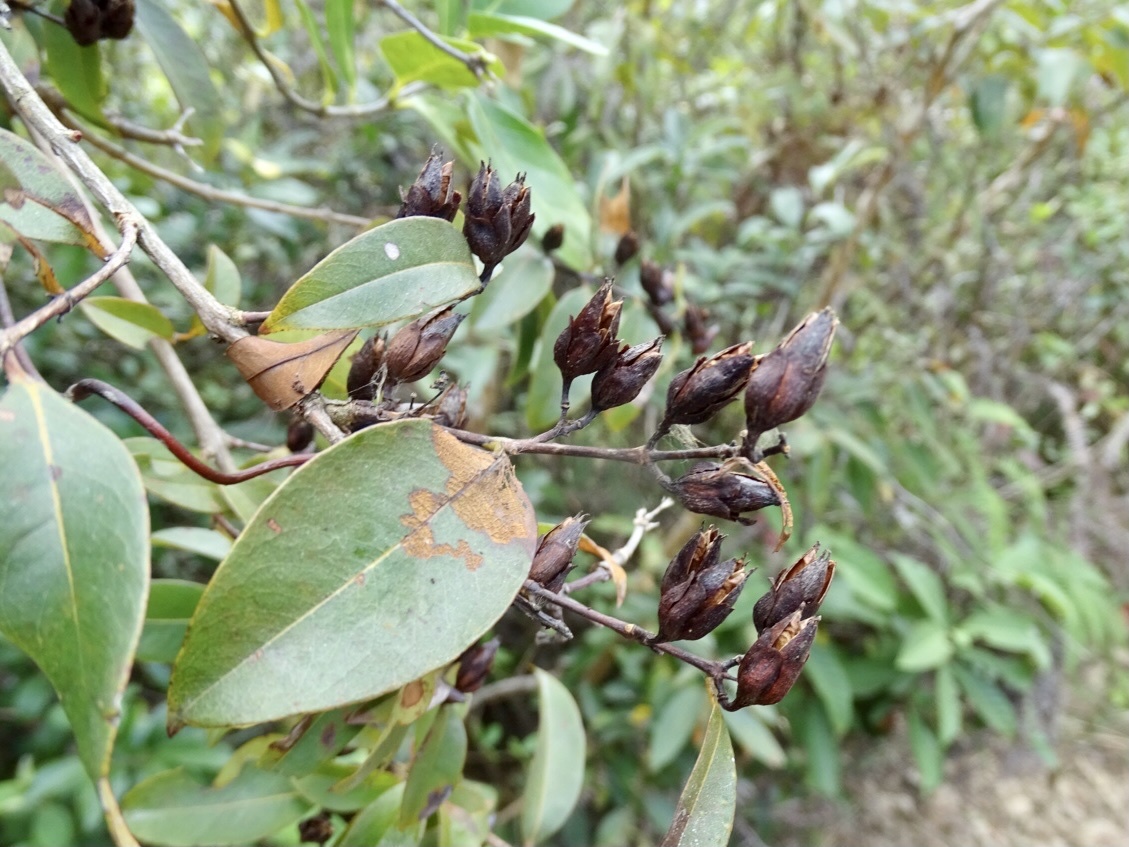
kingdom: Plantae
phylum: Tracheophyta
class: Magnoliopsida
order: Malpighiales
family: Hypericaceae
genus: Cratoxylum
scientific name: Cratoxylum cochinchinense
